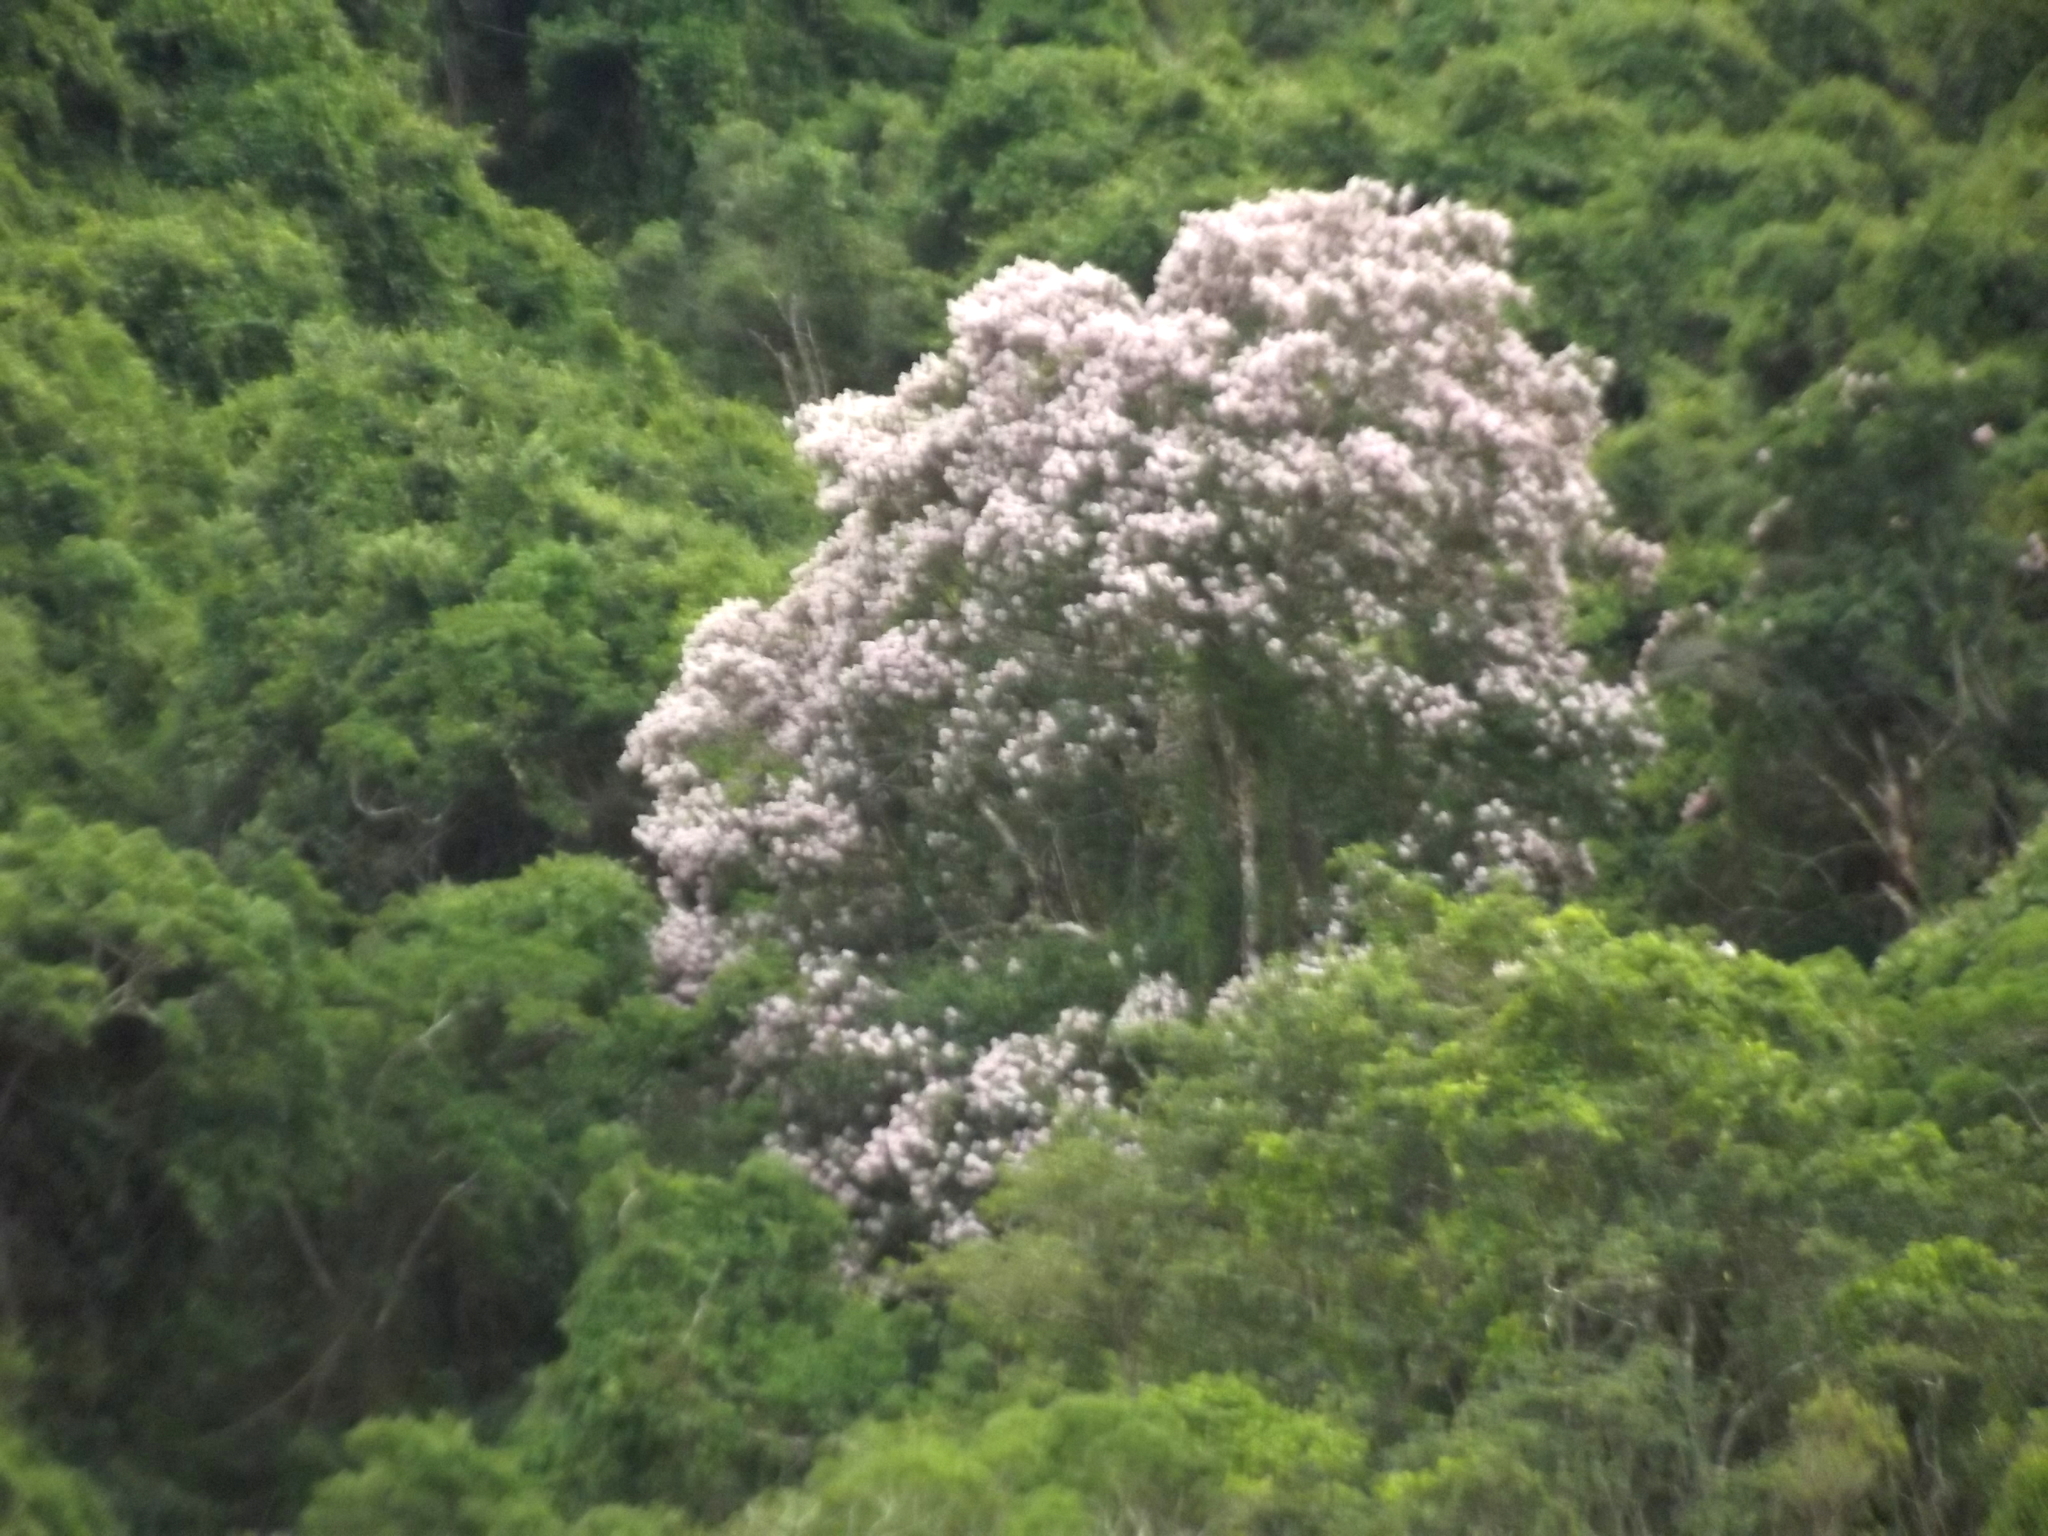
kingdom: Plantae
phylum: Tracheophyta
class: Magnoliopsida
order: Sapindales
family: Rutaceae
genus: Calodendrum
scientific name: Calodendrum capense
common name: Cape chestnut
